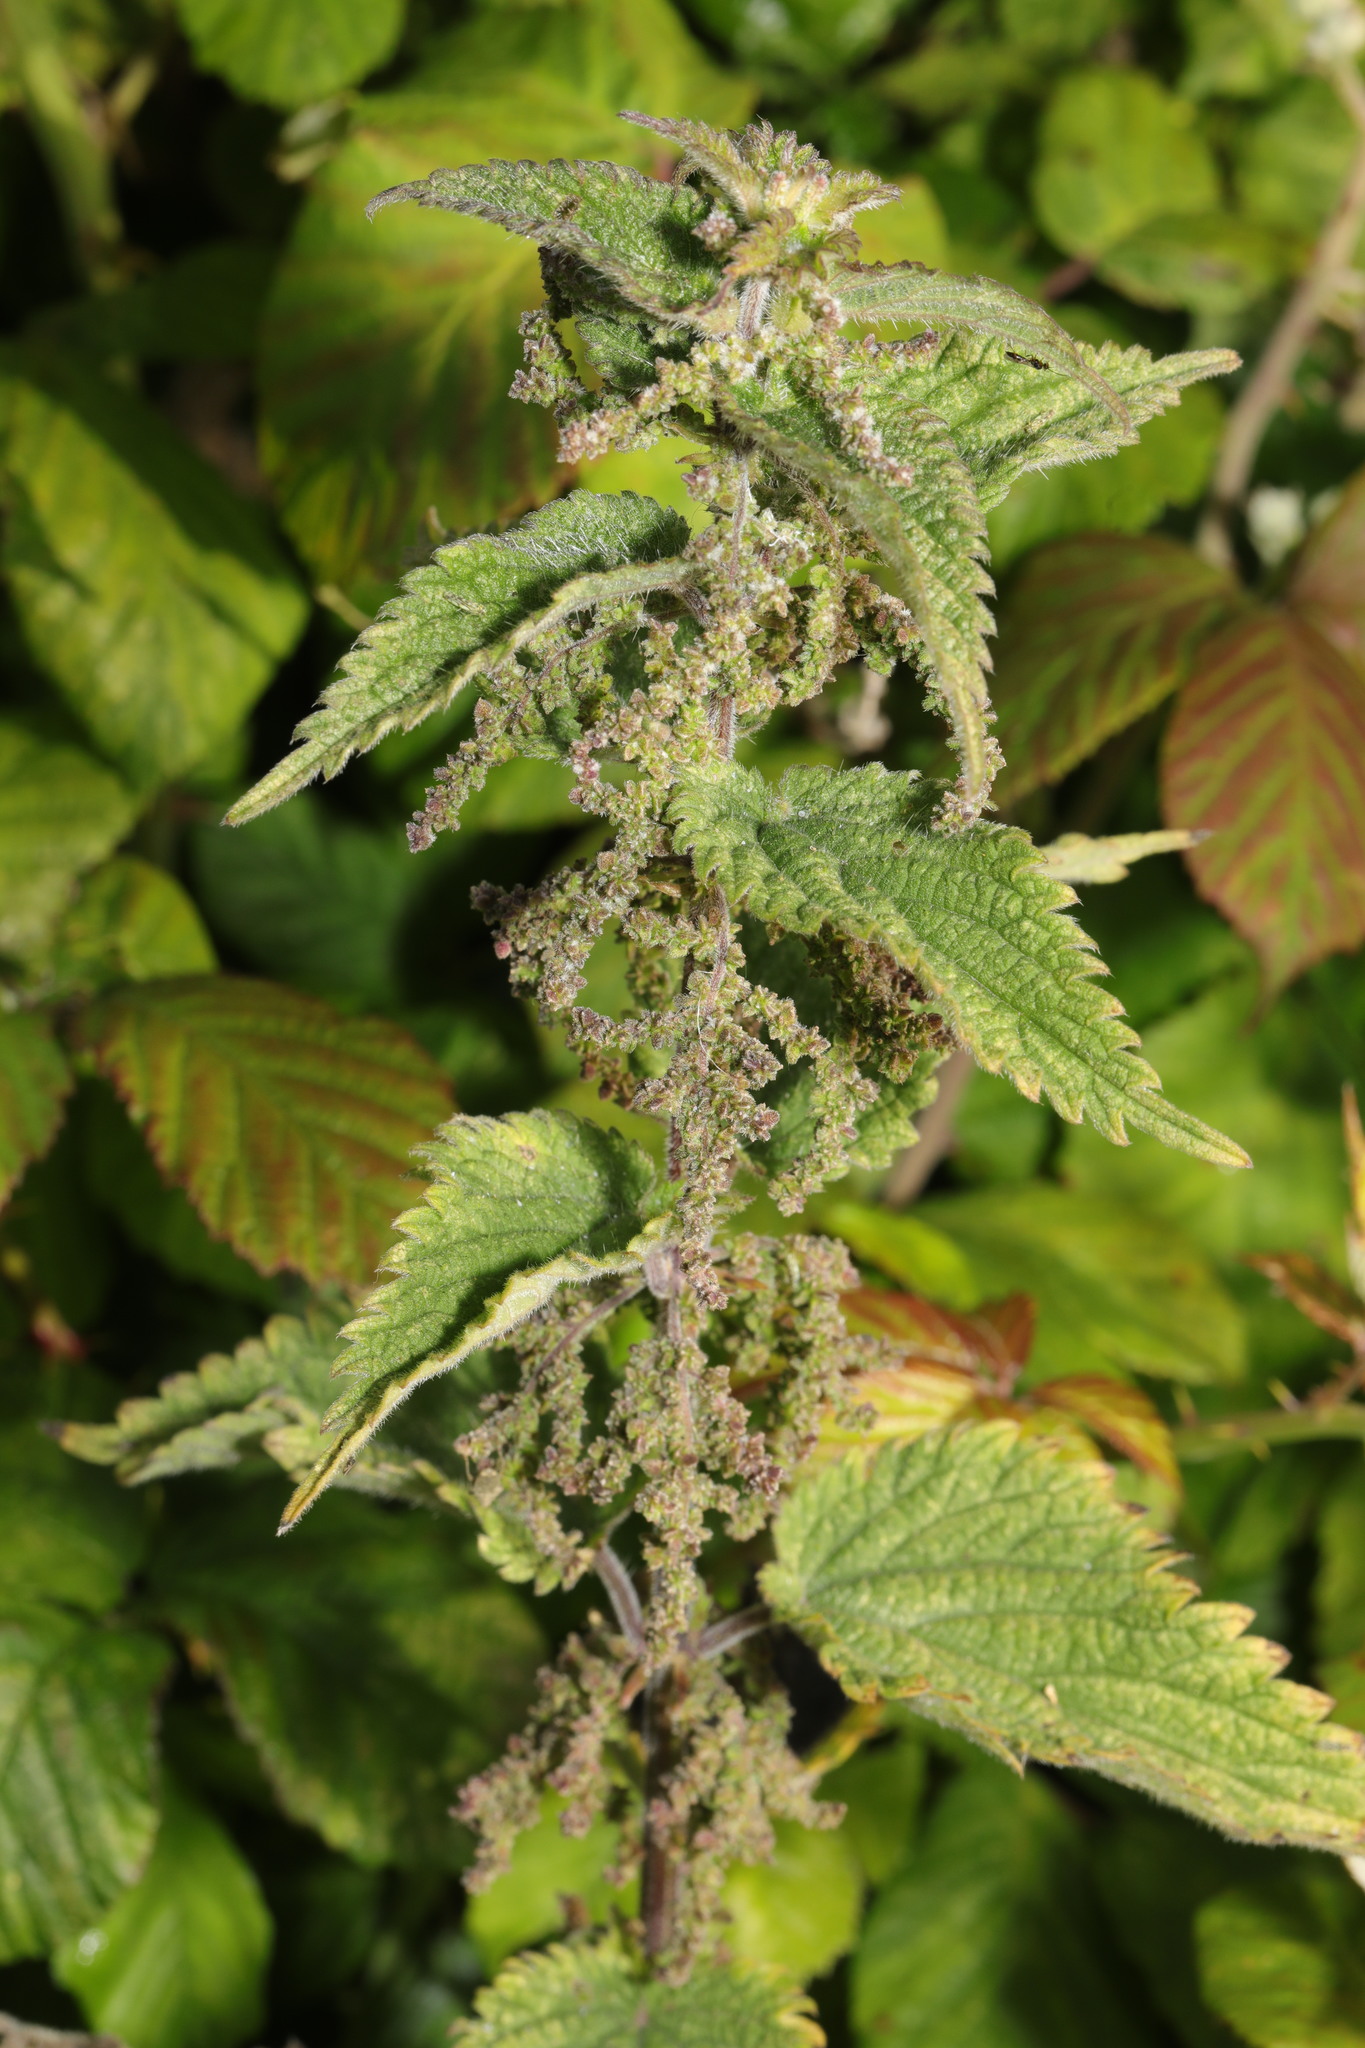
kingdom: Plantae
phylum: Tracheophyta
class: Magnoliopsida
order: Rosales
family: Urticaceae
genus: Urtica
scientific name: Urtica dioica
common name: Common nettle
